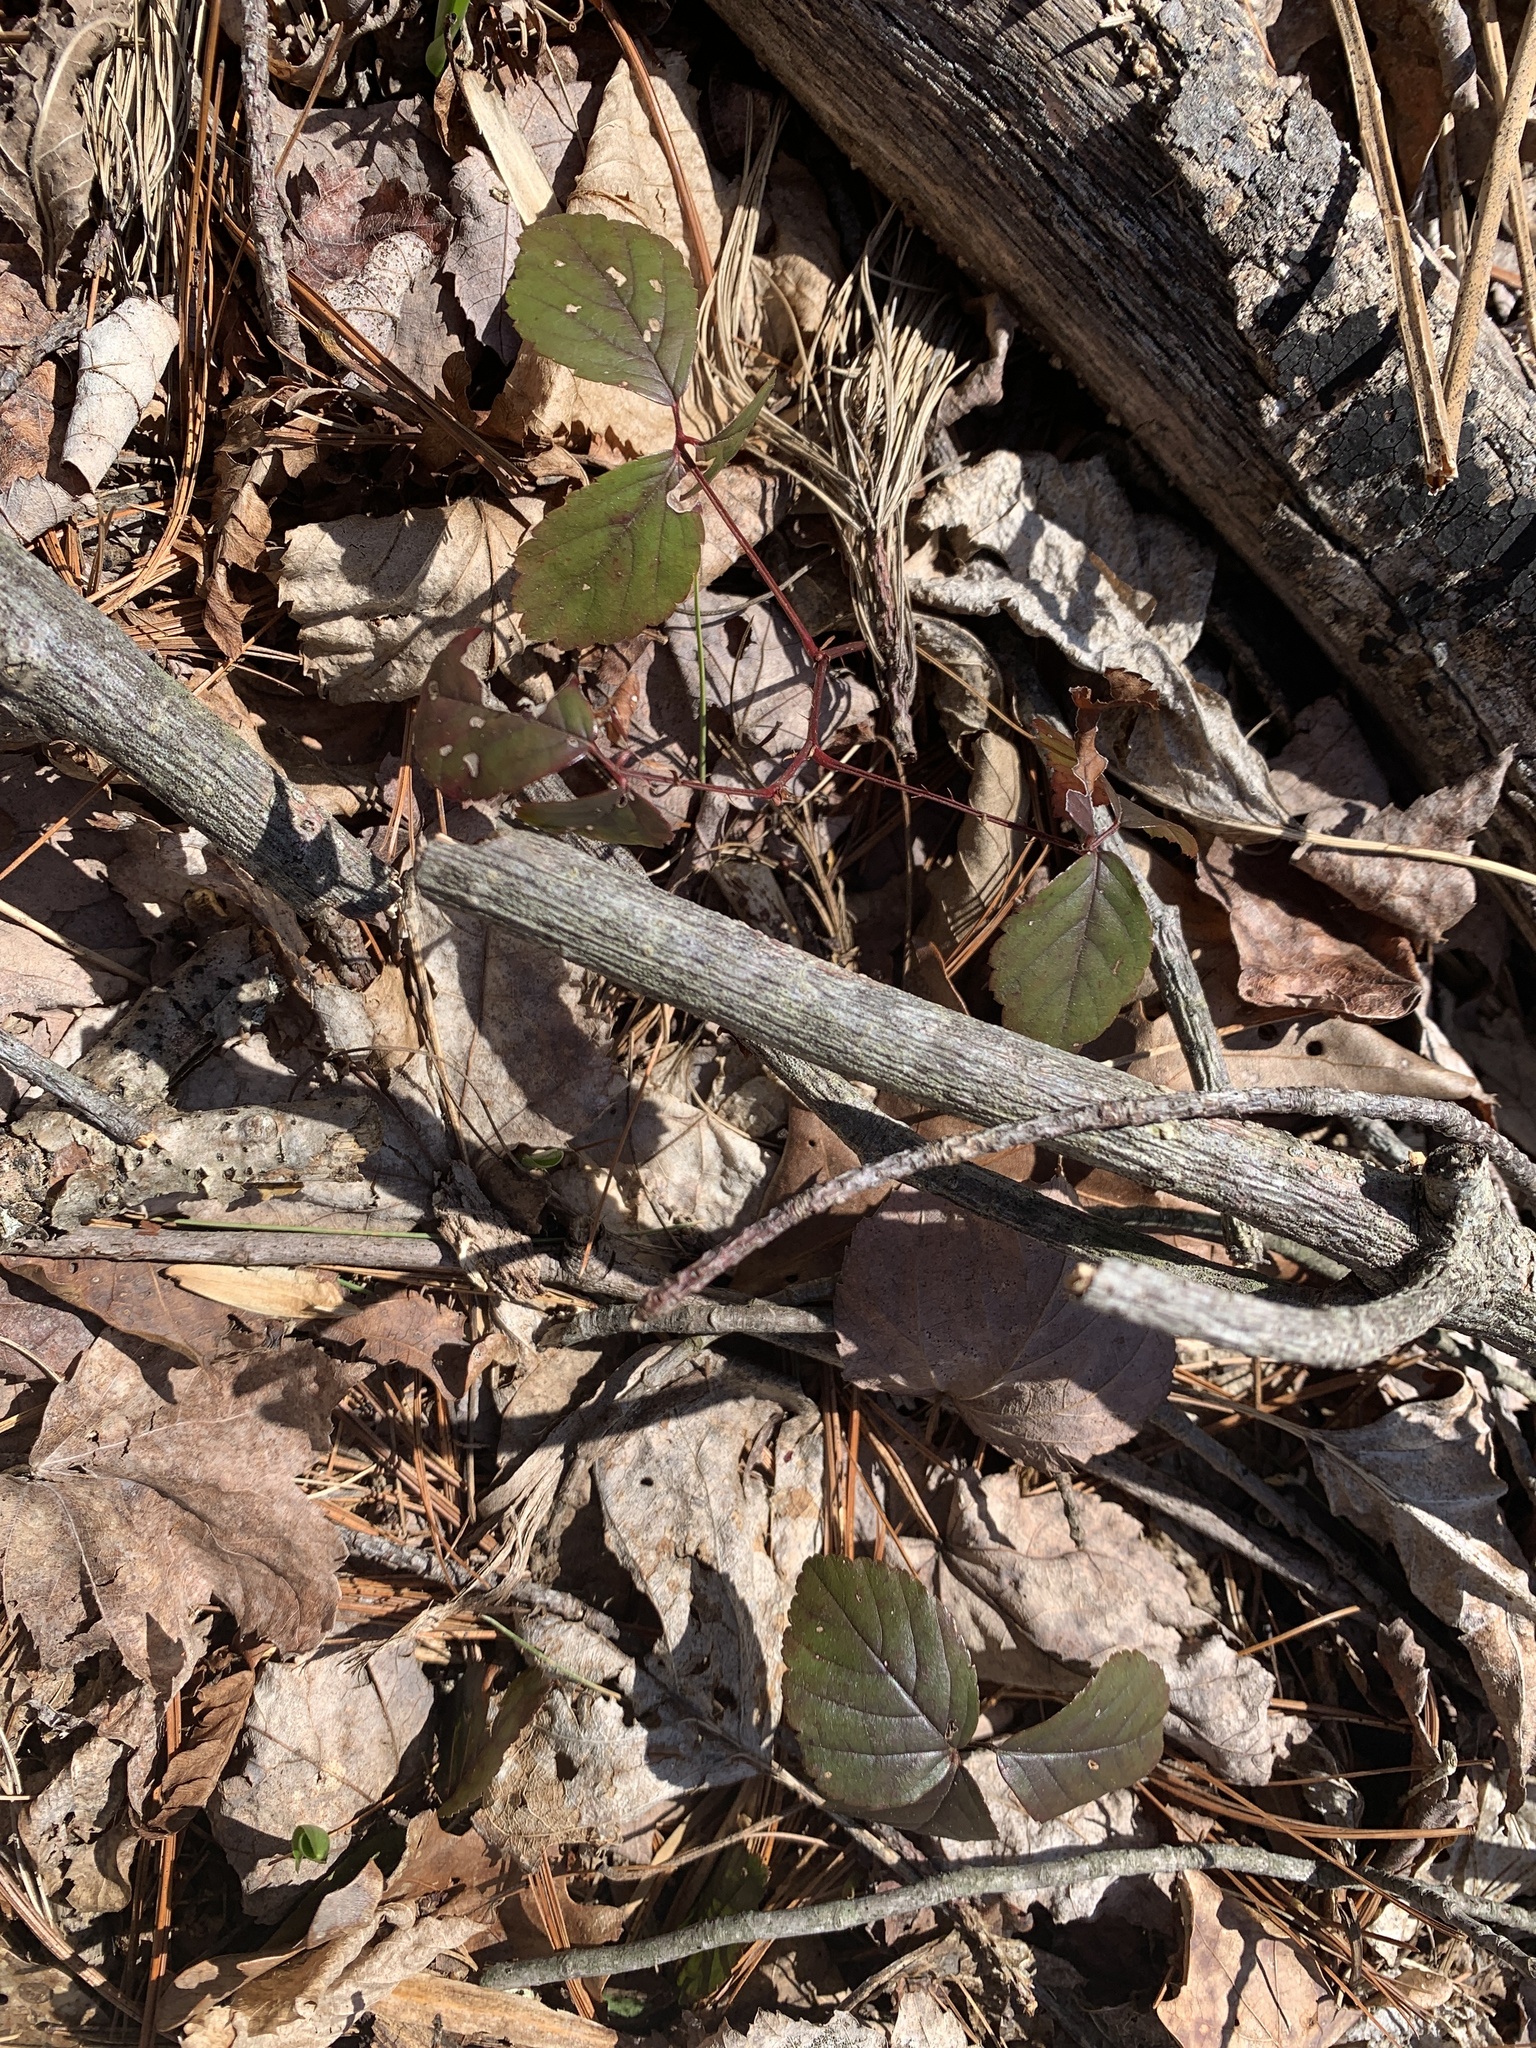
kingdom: Plantae
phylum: Tracheophyta
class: Magnoliopsida
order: Rosales
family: Rosaceae
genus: Rubus
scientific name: Rubus hispidus
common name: Running blackberry
